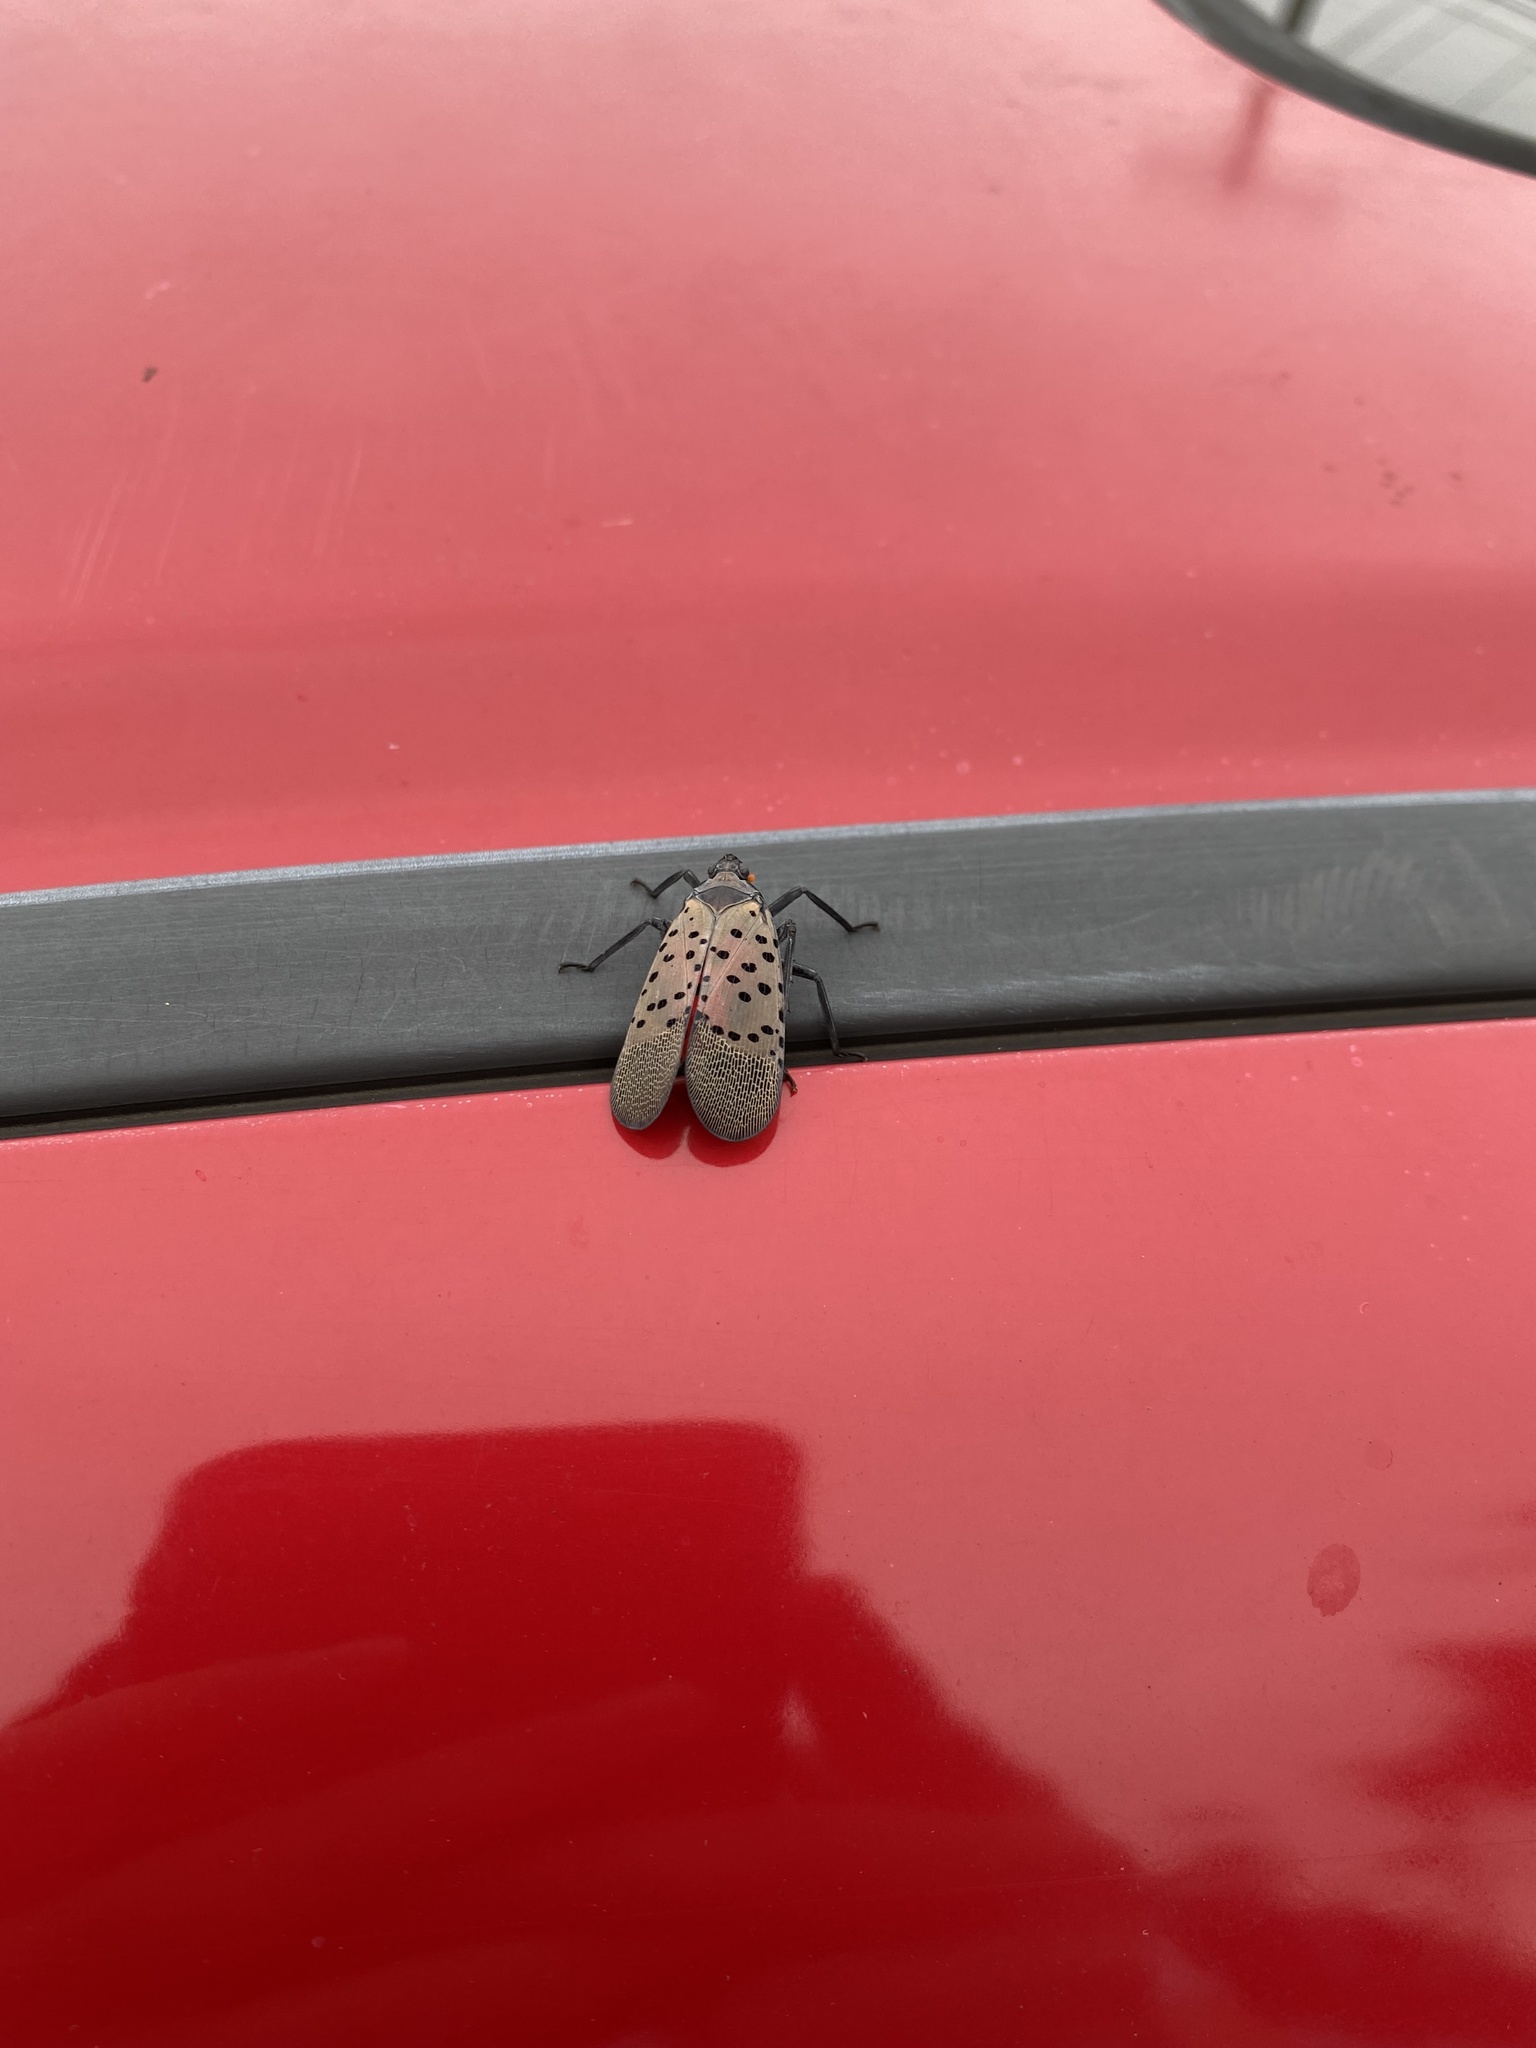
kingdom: Animalia
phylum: Arthropoda
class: Insecta
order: Hemiptera
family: Fulgoridae
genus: Lycorma
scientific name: Lycorma delicatula
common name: Spotted lanternfly
